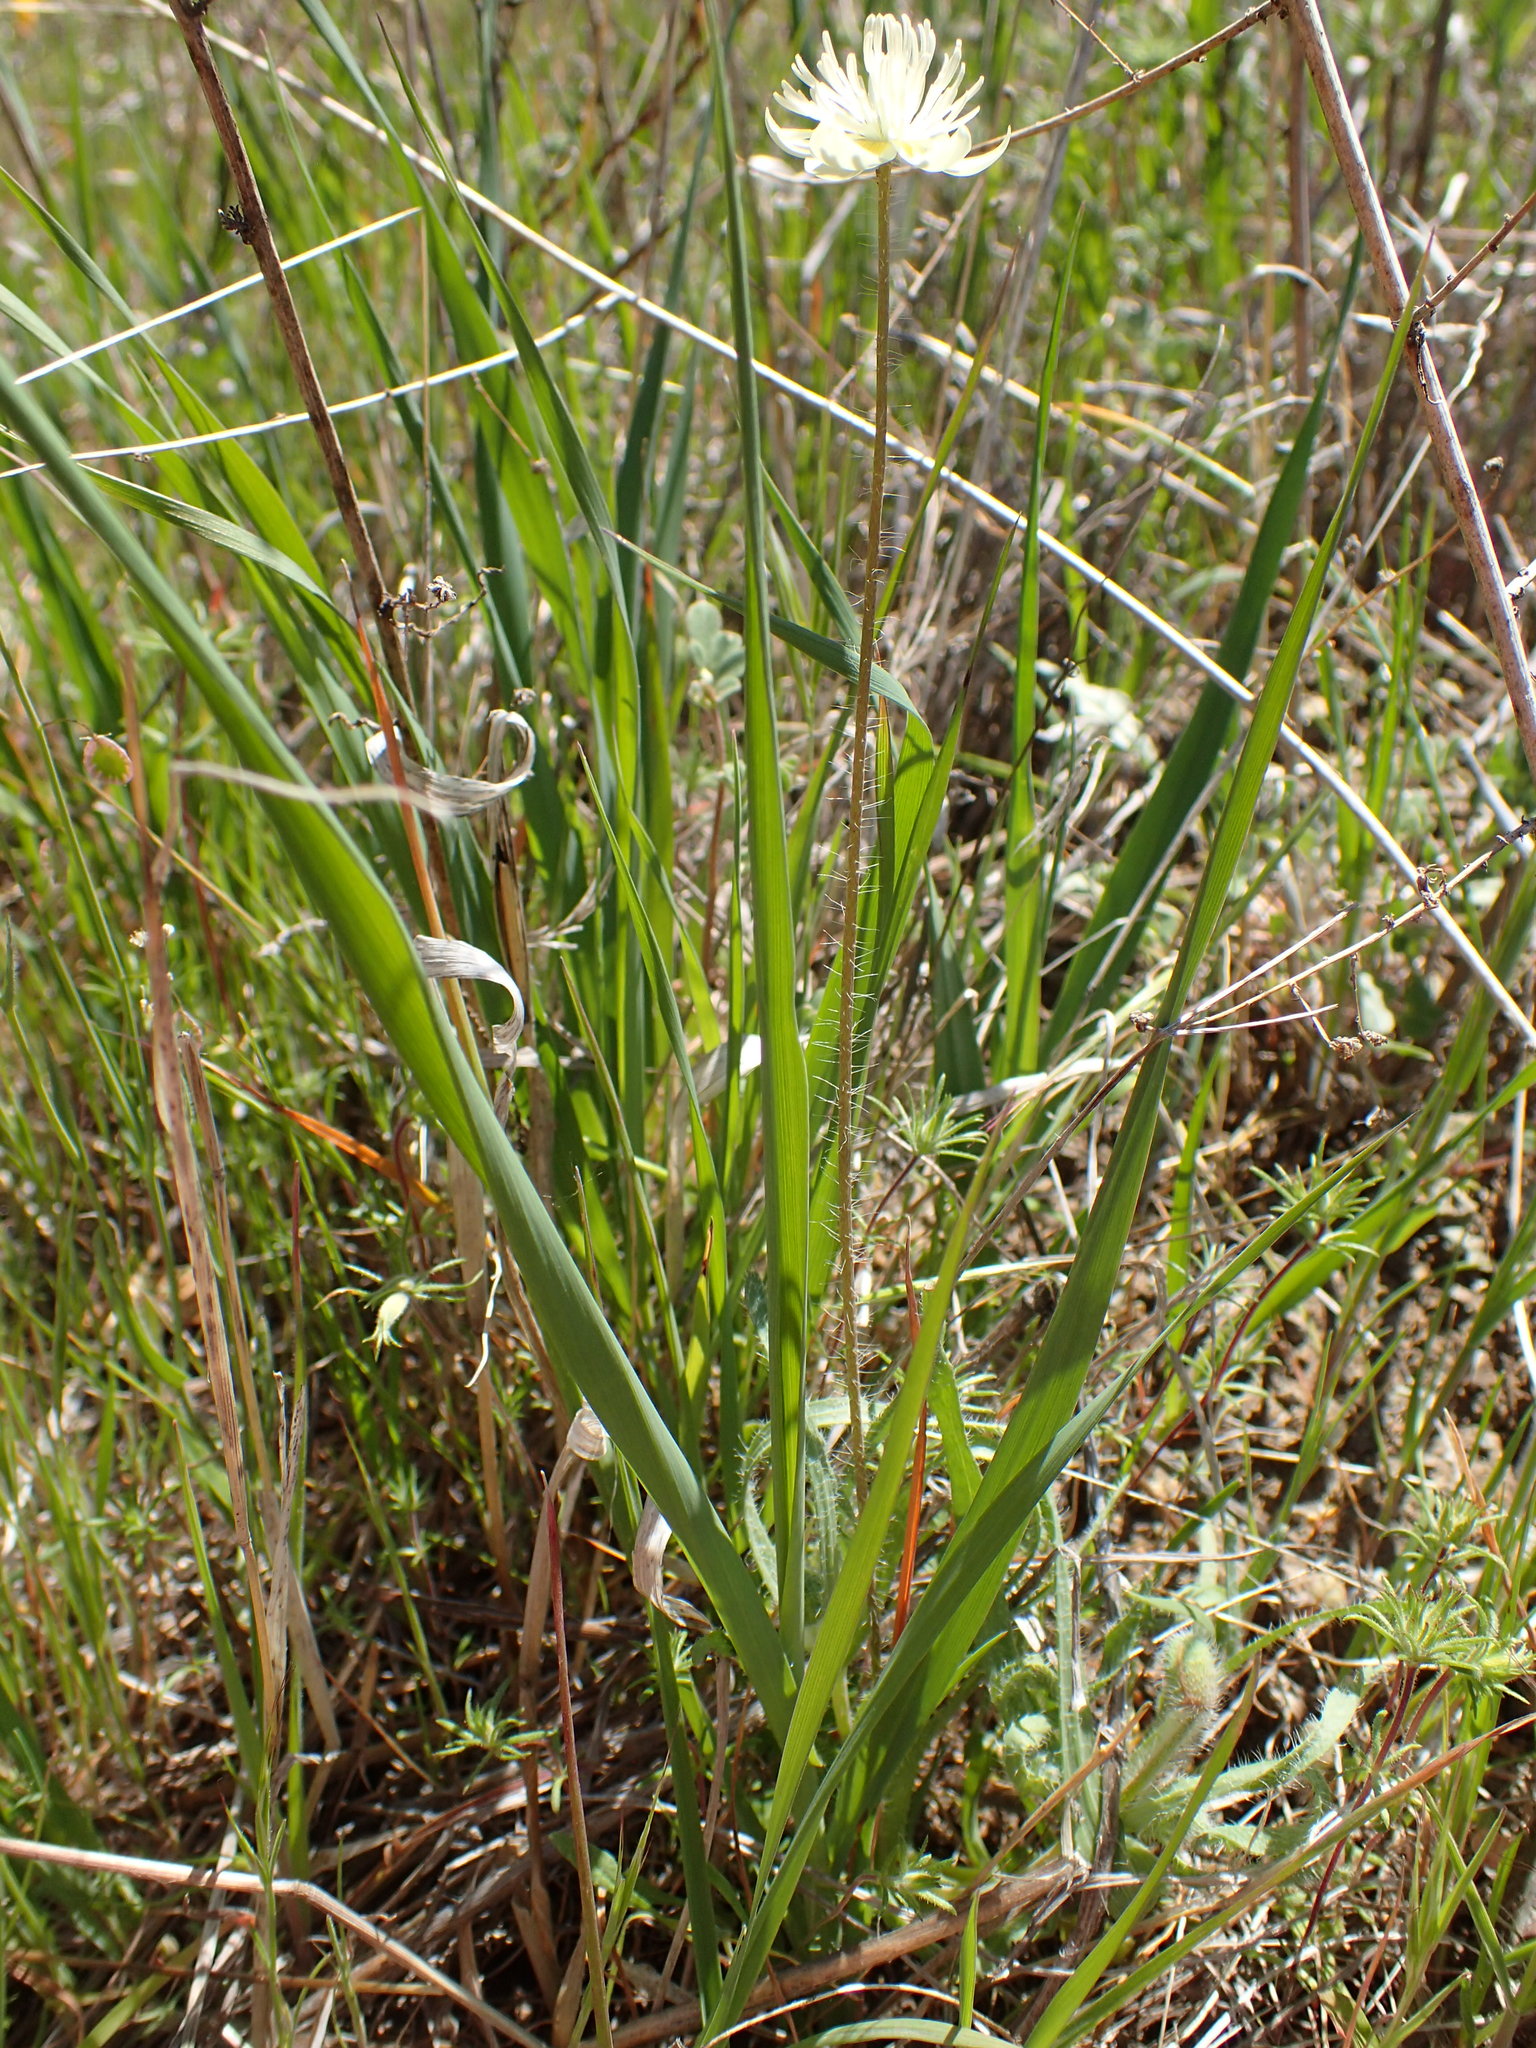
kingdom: Plantae
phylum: Tracheophyta
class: Magnoliopsida
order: Ranunculales
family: Papaveraceae
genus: Platystemon
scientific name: Platystemon californicus
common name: Cream-cups
